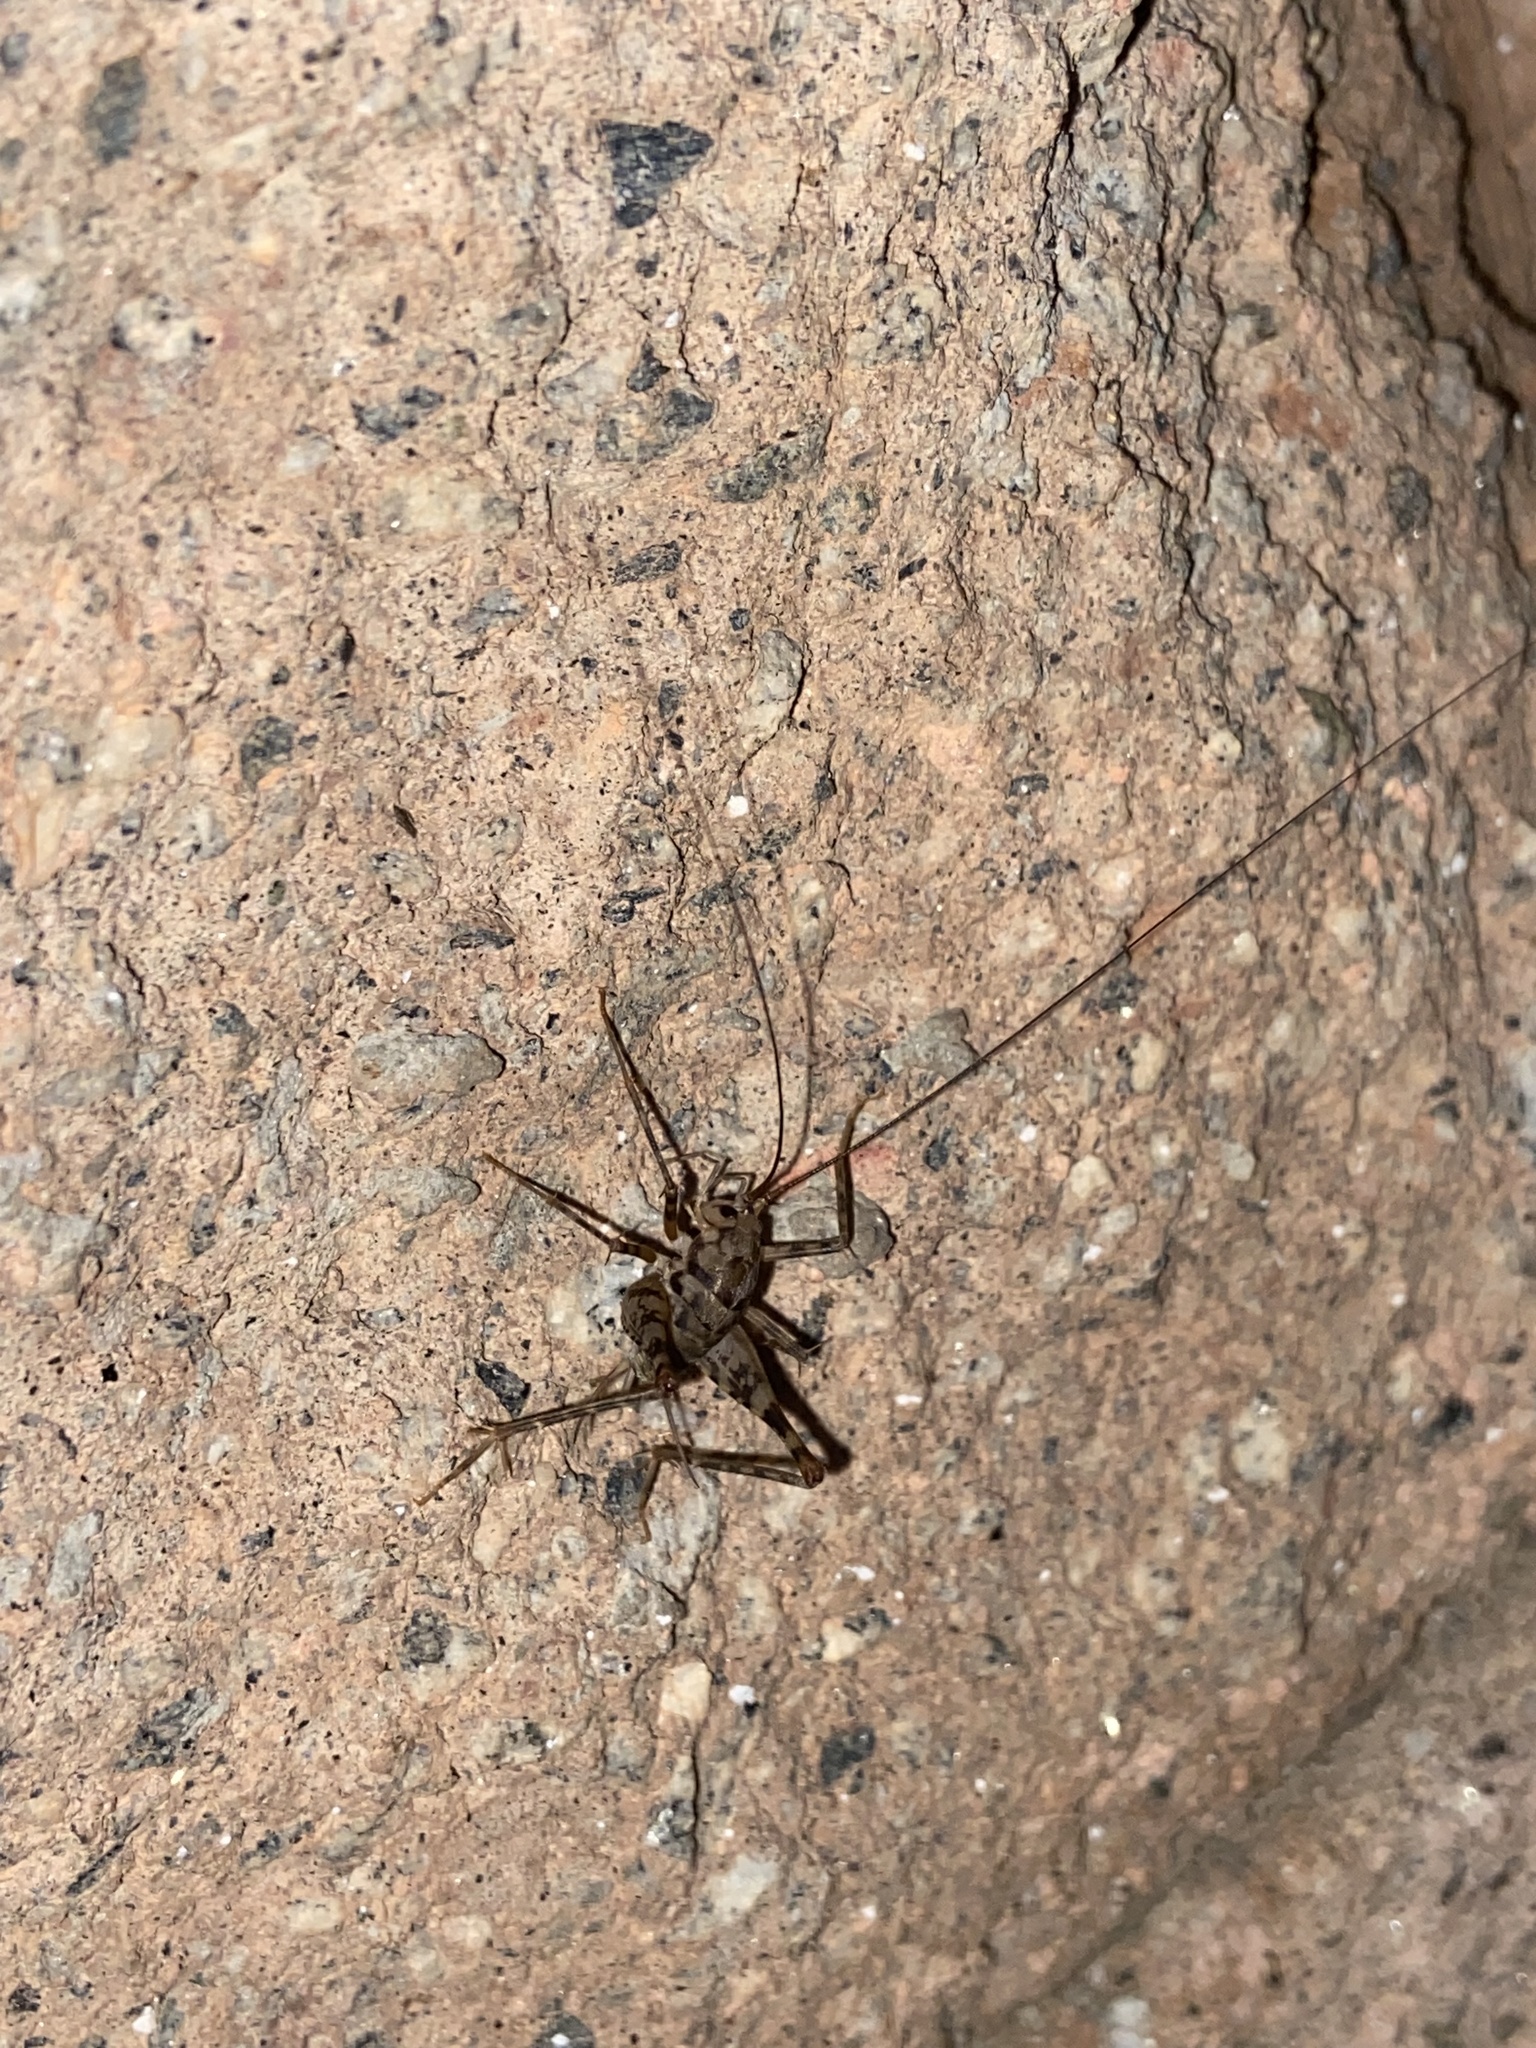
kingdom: Animalia
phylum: Arthropoda
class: Insecta
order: Orthoptera
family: Rhaphidophoridae
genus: Tachycines
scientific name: Tachycines asynamorus
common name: Greenhouse camel cricket
